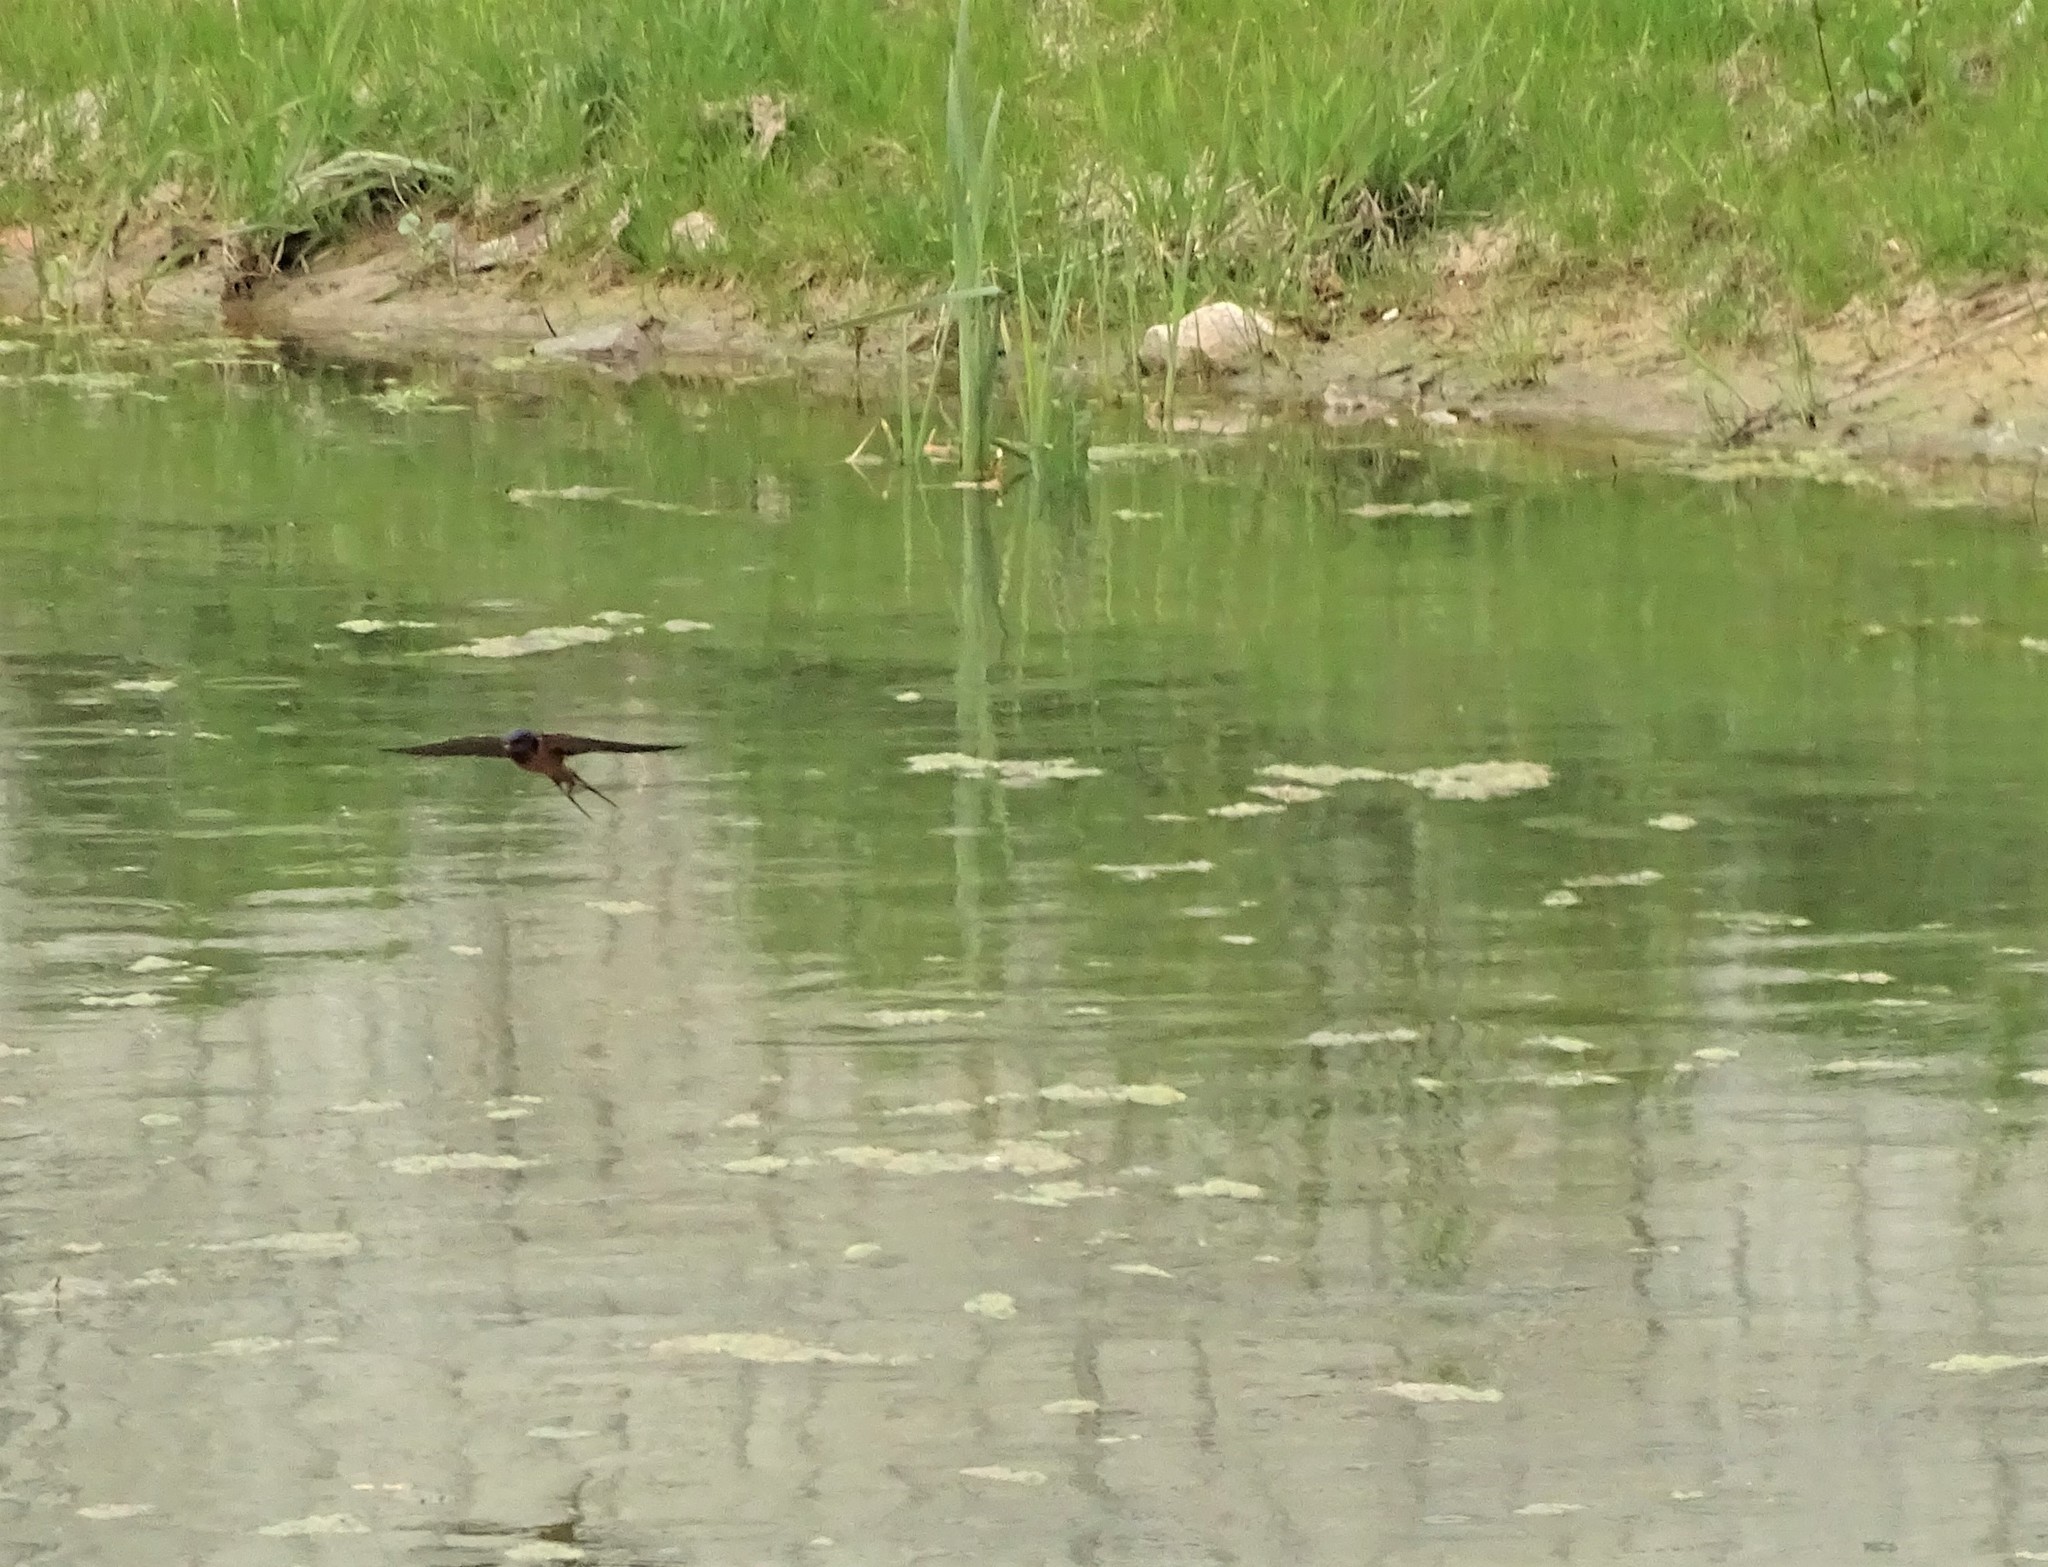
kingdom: Animalia
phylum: Chordata
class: Aves
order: Passeriformes
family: Hirundinidae
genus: Hirundo
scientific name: Hirundo rustica
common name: Barn swallow
